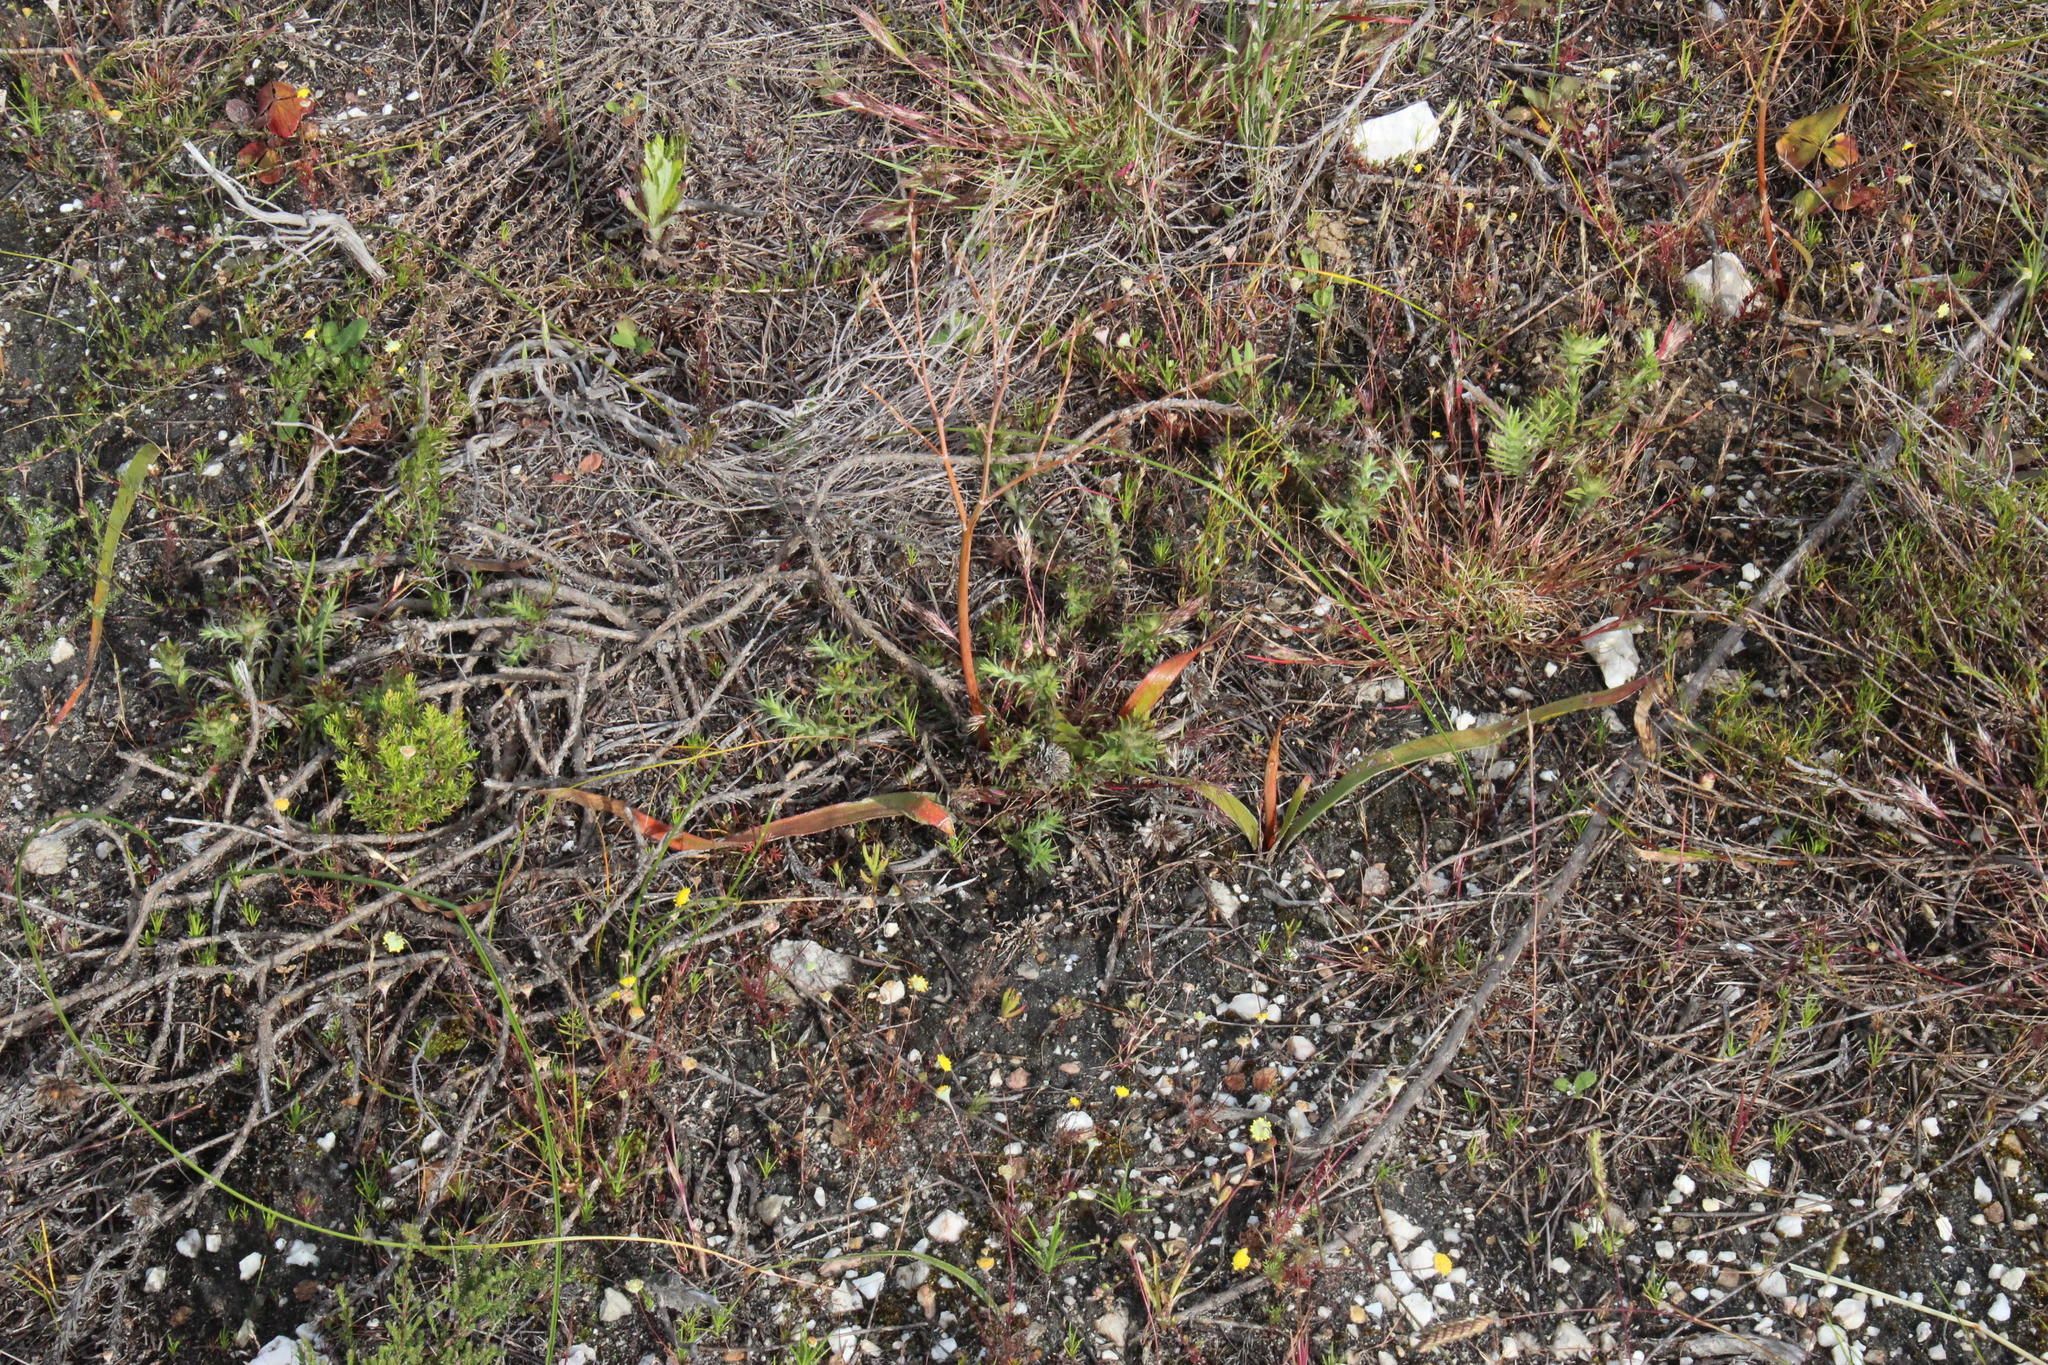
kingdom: Plantae
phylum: Tracheophyta
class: Liliopsida
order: Asparagales
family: Asphodelaceae
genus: Trachyandra
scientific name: Trachyandra muricata
